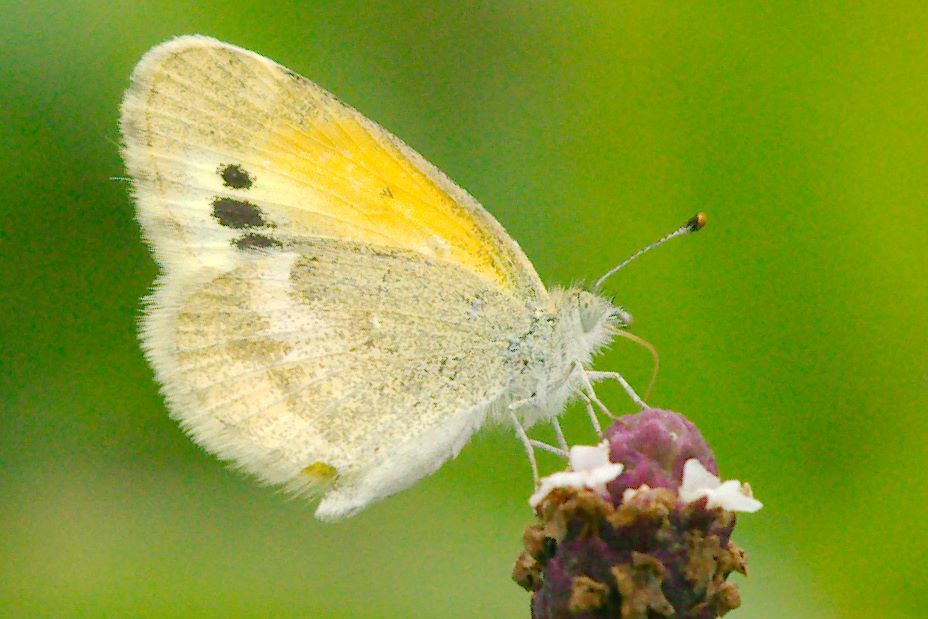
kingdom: Animalia
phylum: Arthropoda
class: Insecta
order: Lepidoptera
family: Pieridae
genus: Nathalis
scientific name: Nathalis iole
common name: Dainty sulphur
